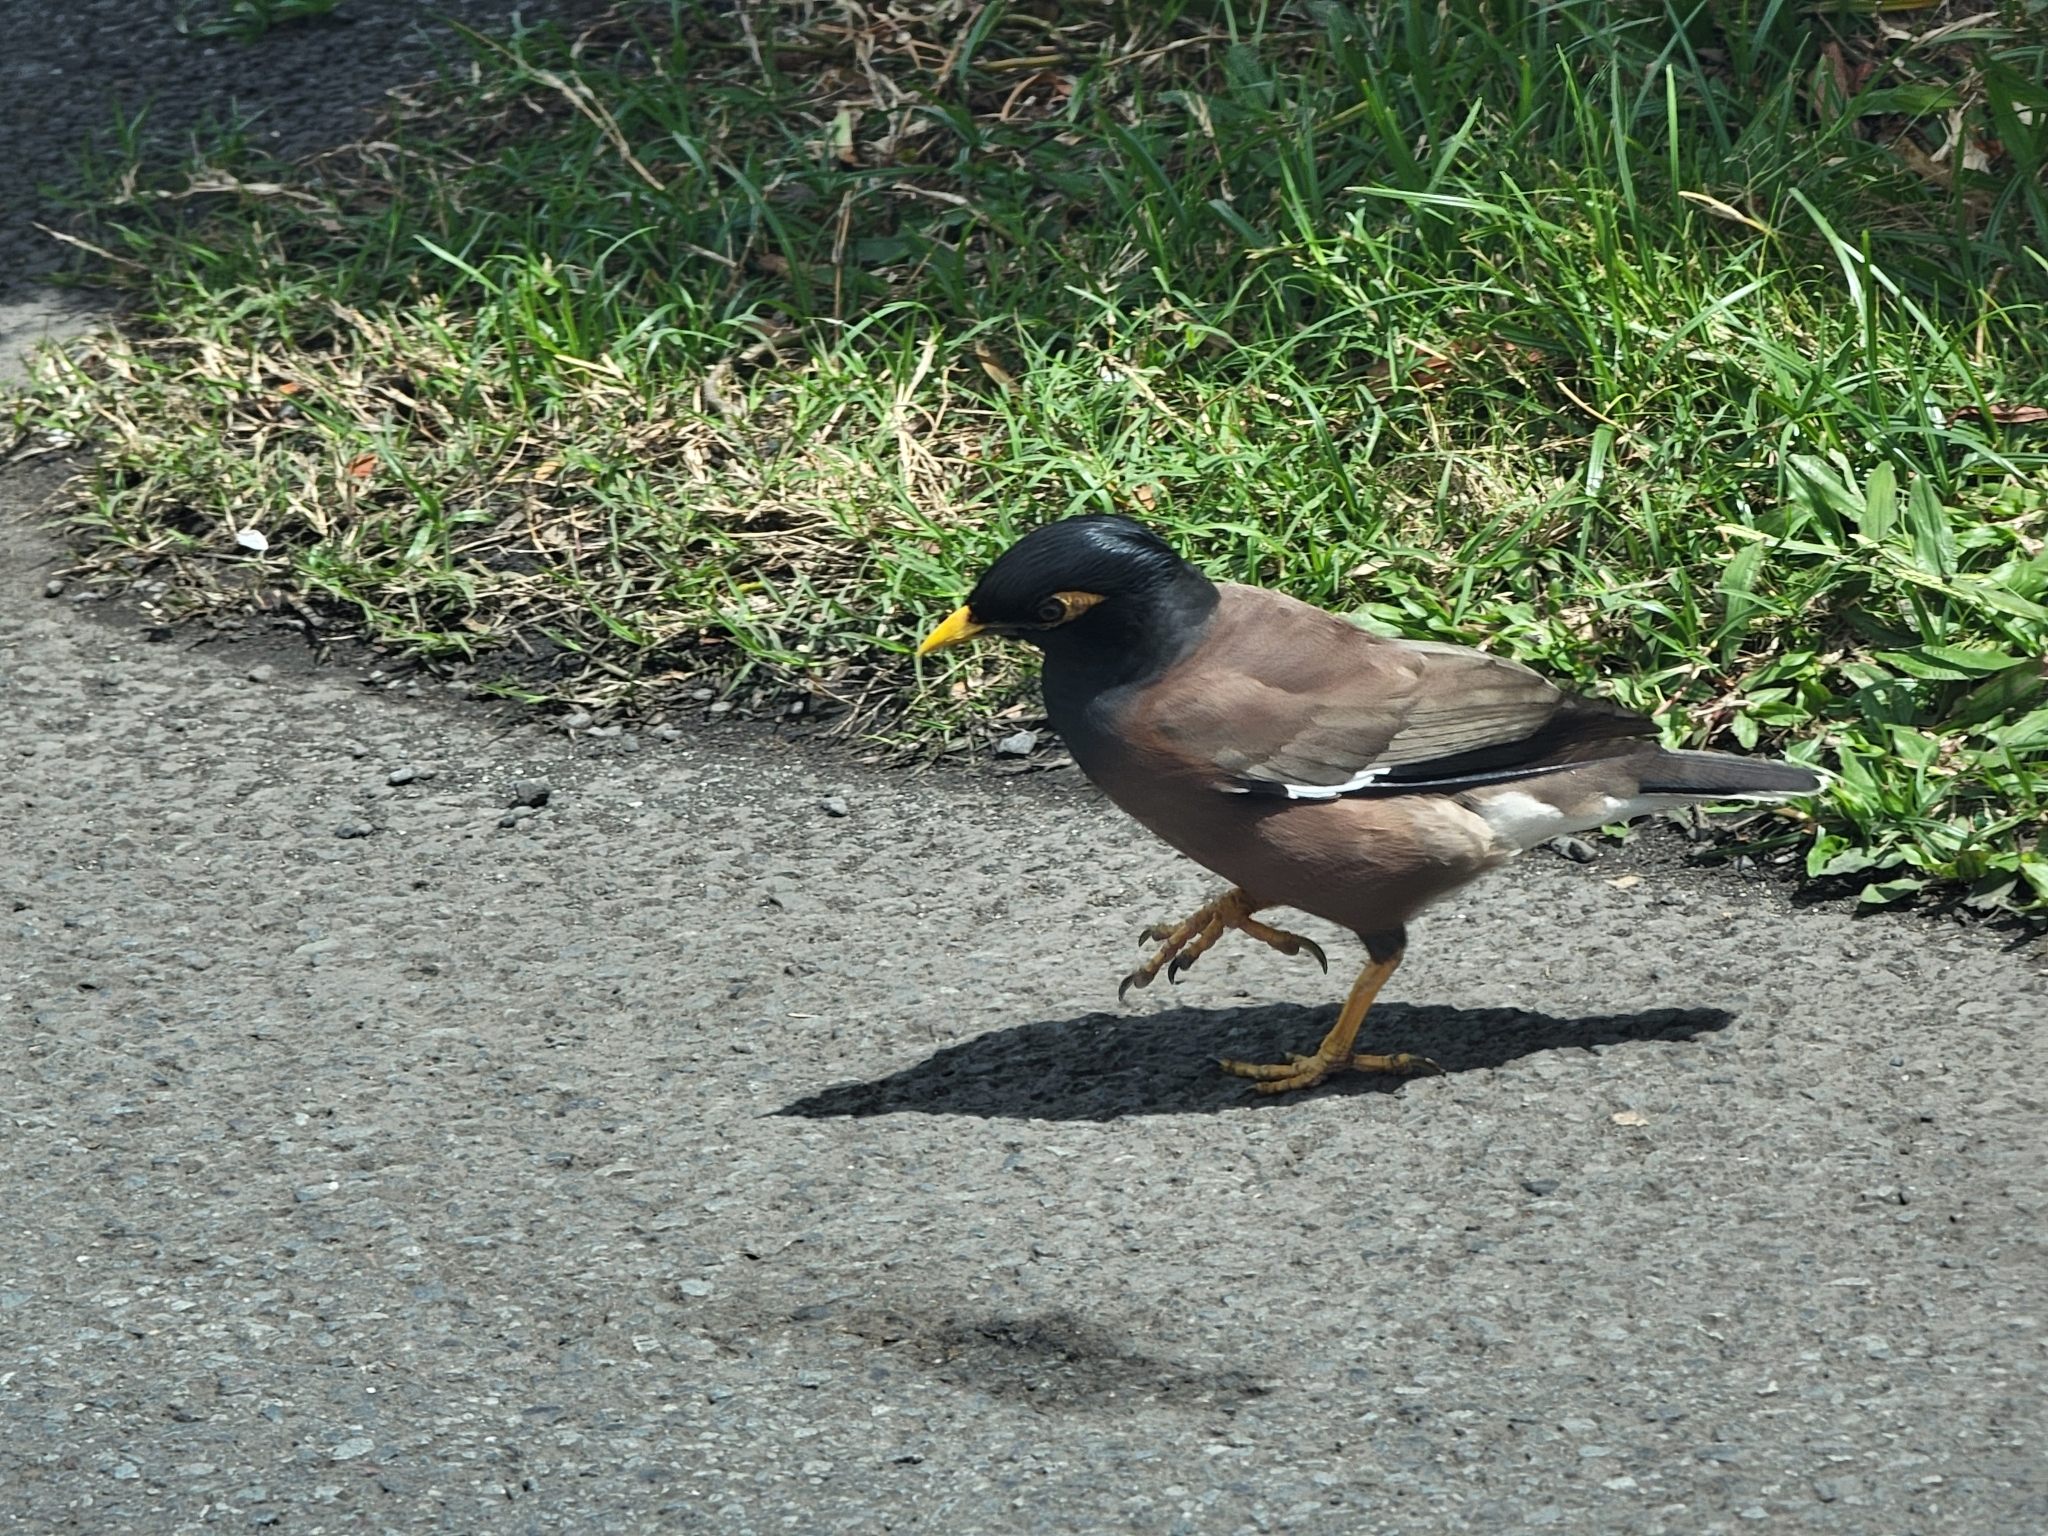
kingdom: Animalia
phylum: Chordata
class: Aves
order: Passeriformes
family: Sturnidae
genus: Acridotheres
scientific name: Acridotheres tristis
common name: Common myna
